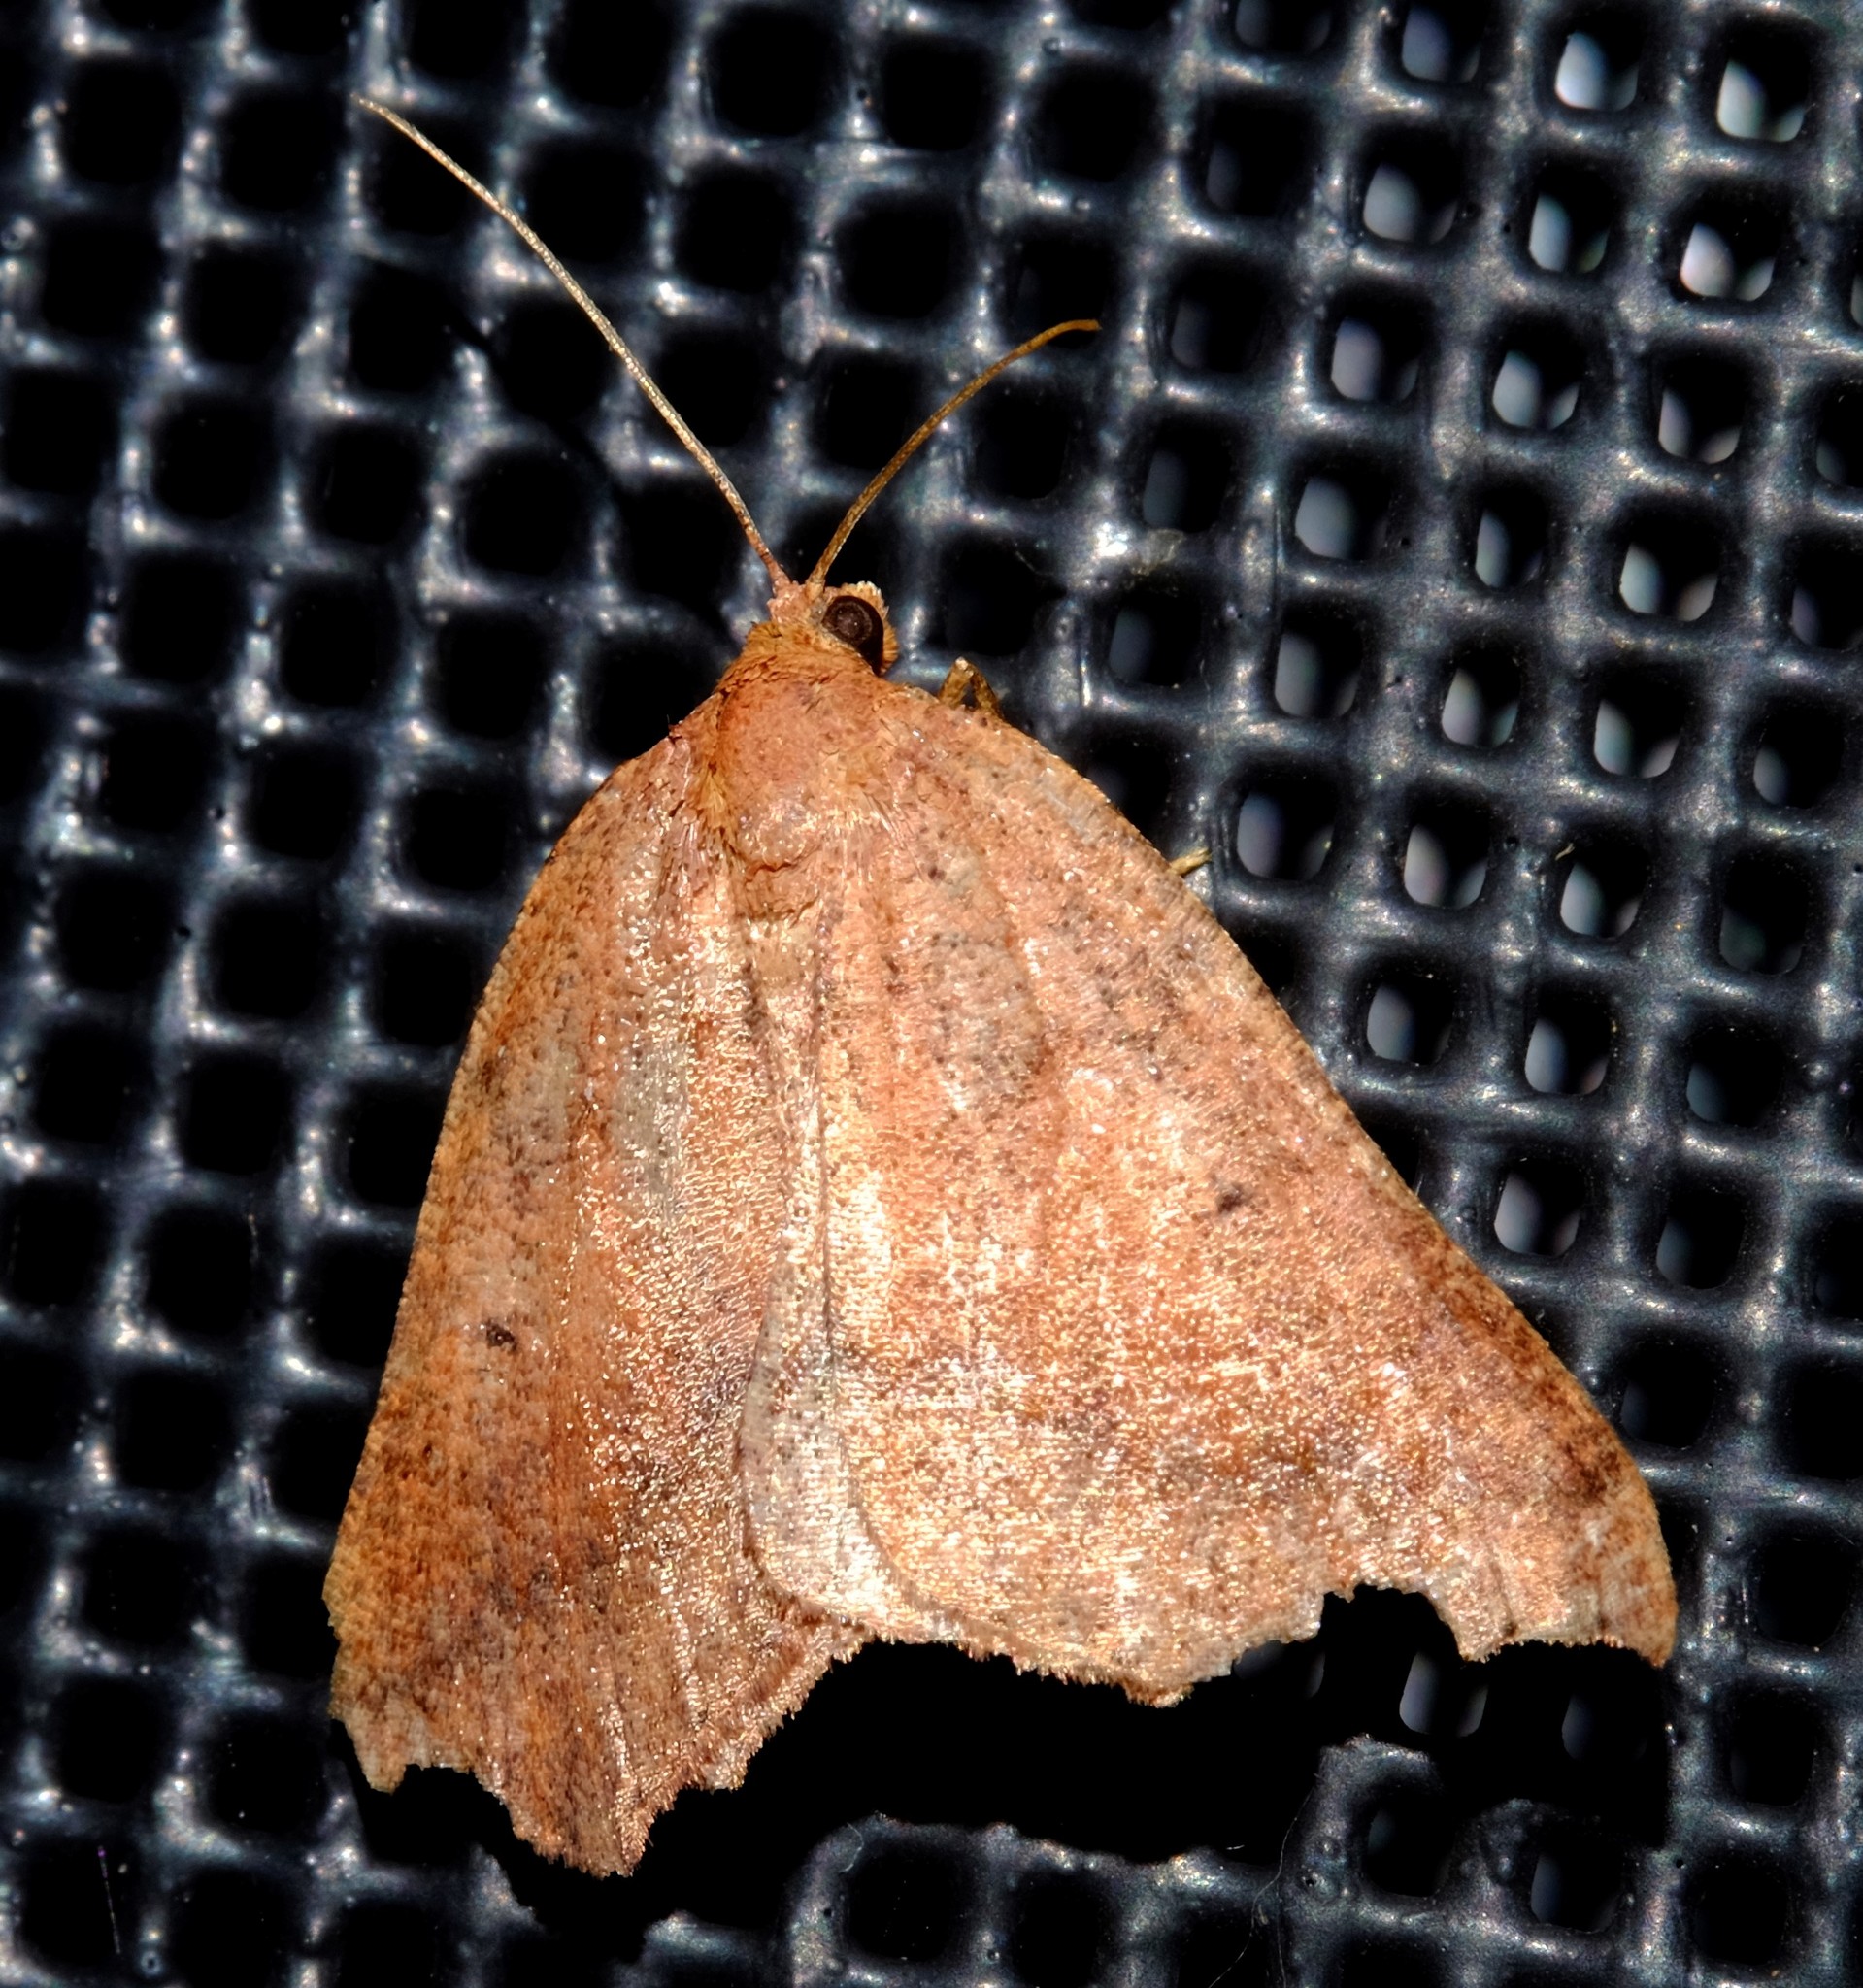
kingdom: Animalia
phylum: Arthropoda
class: Insecta
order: Lepidoptera
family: Geometridae
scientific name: Geometridae
